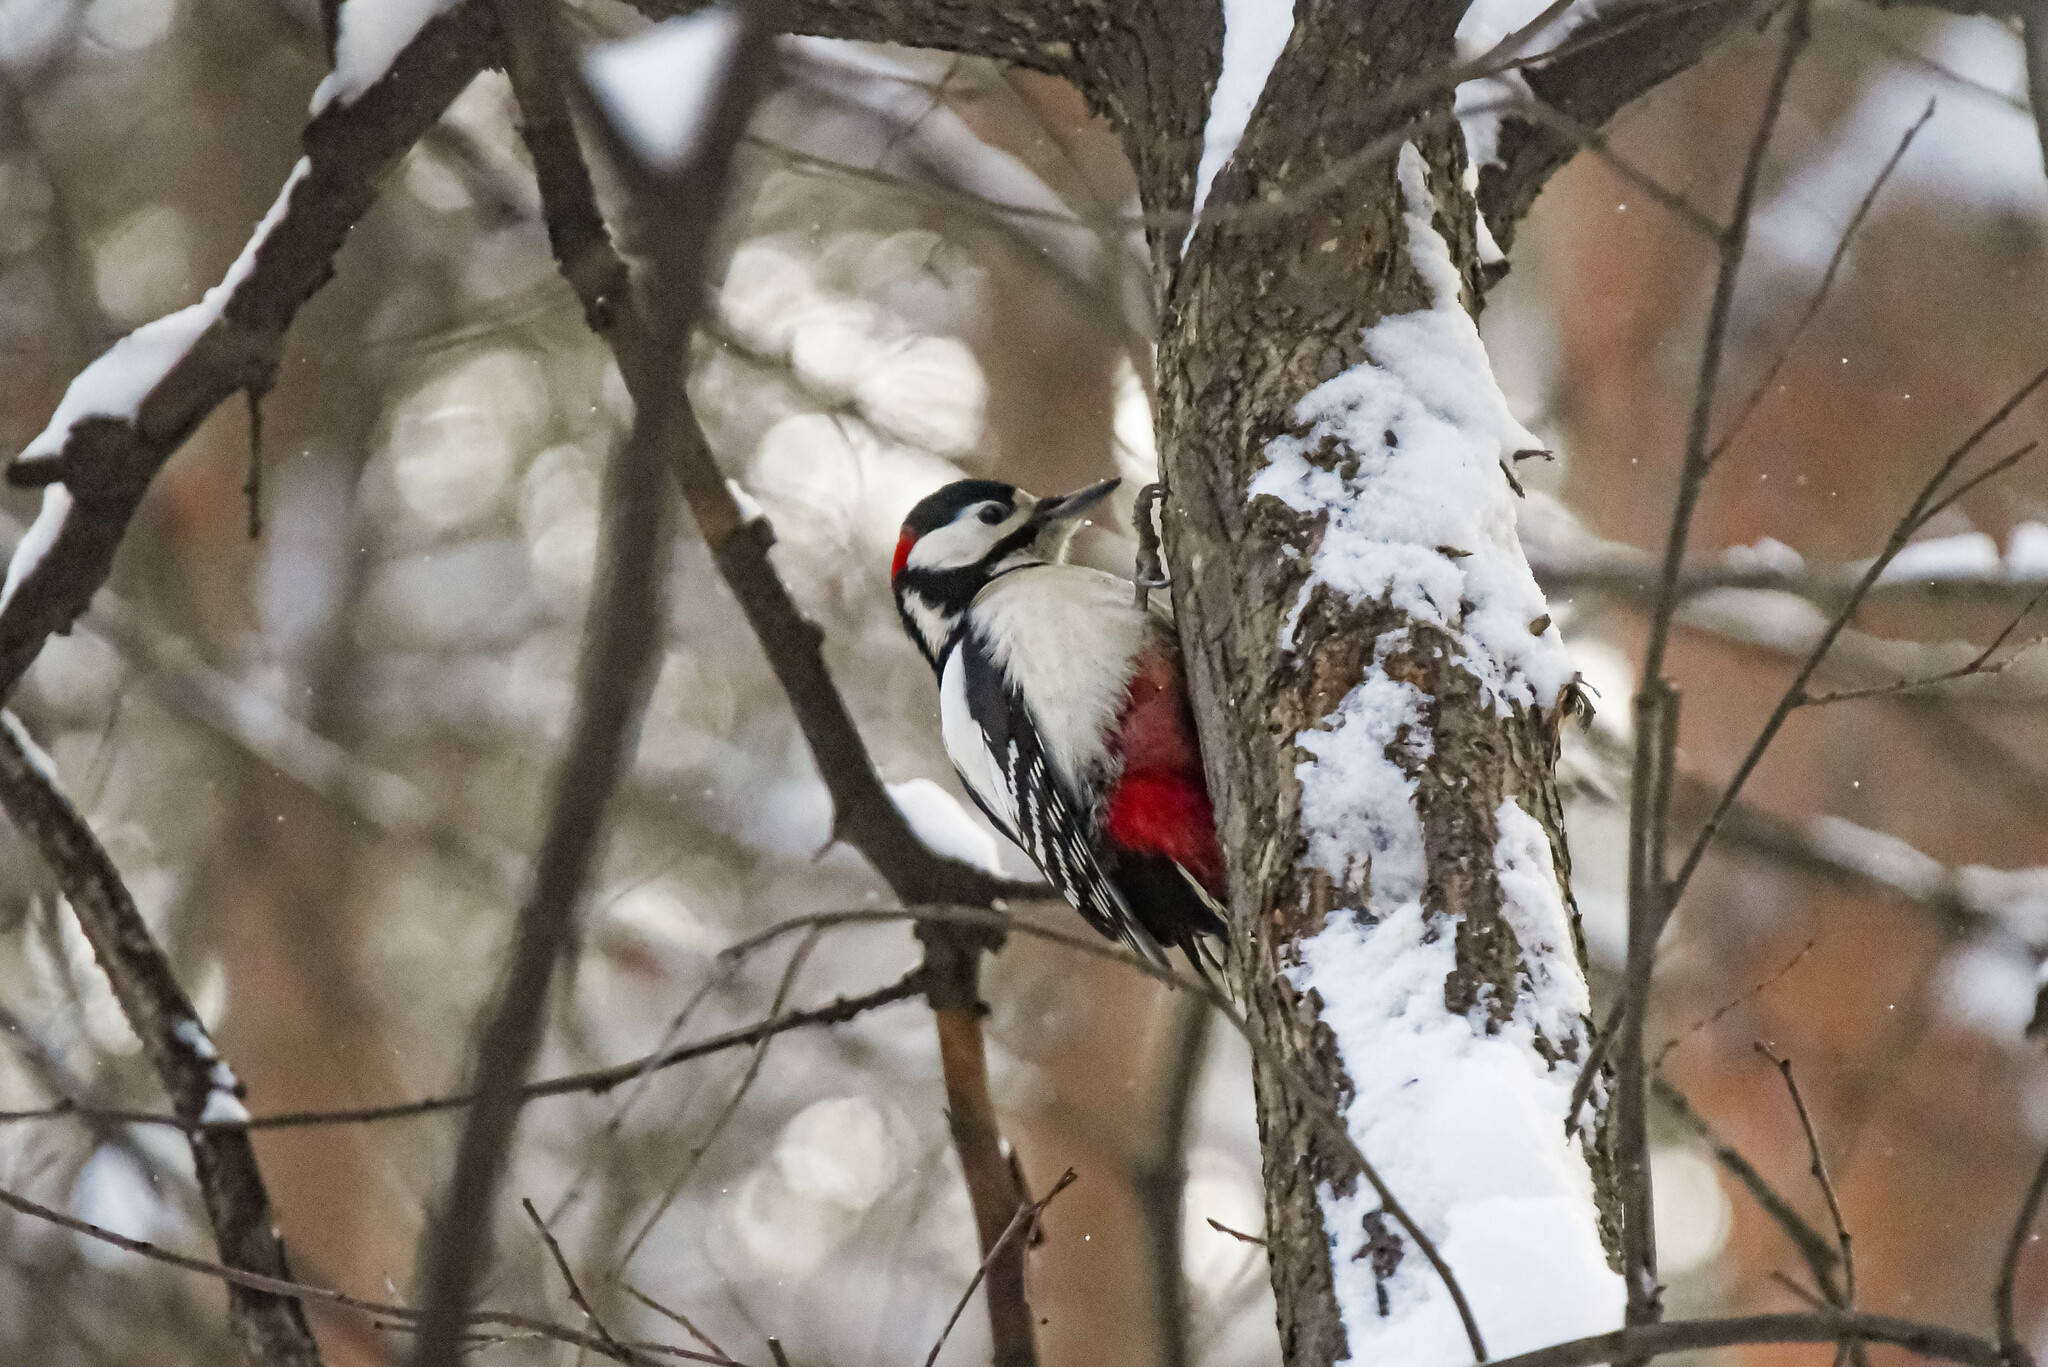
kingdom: Animalia
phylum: Chordata
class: Aves
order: Piciformes
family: Picidae
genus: Dendrocopos
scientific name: Dendrocopos major
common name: Great spotted woodpecker
